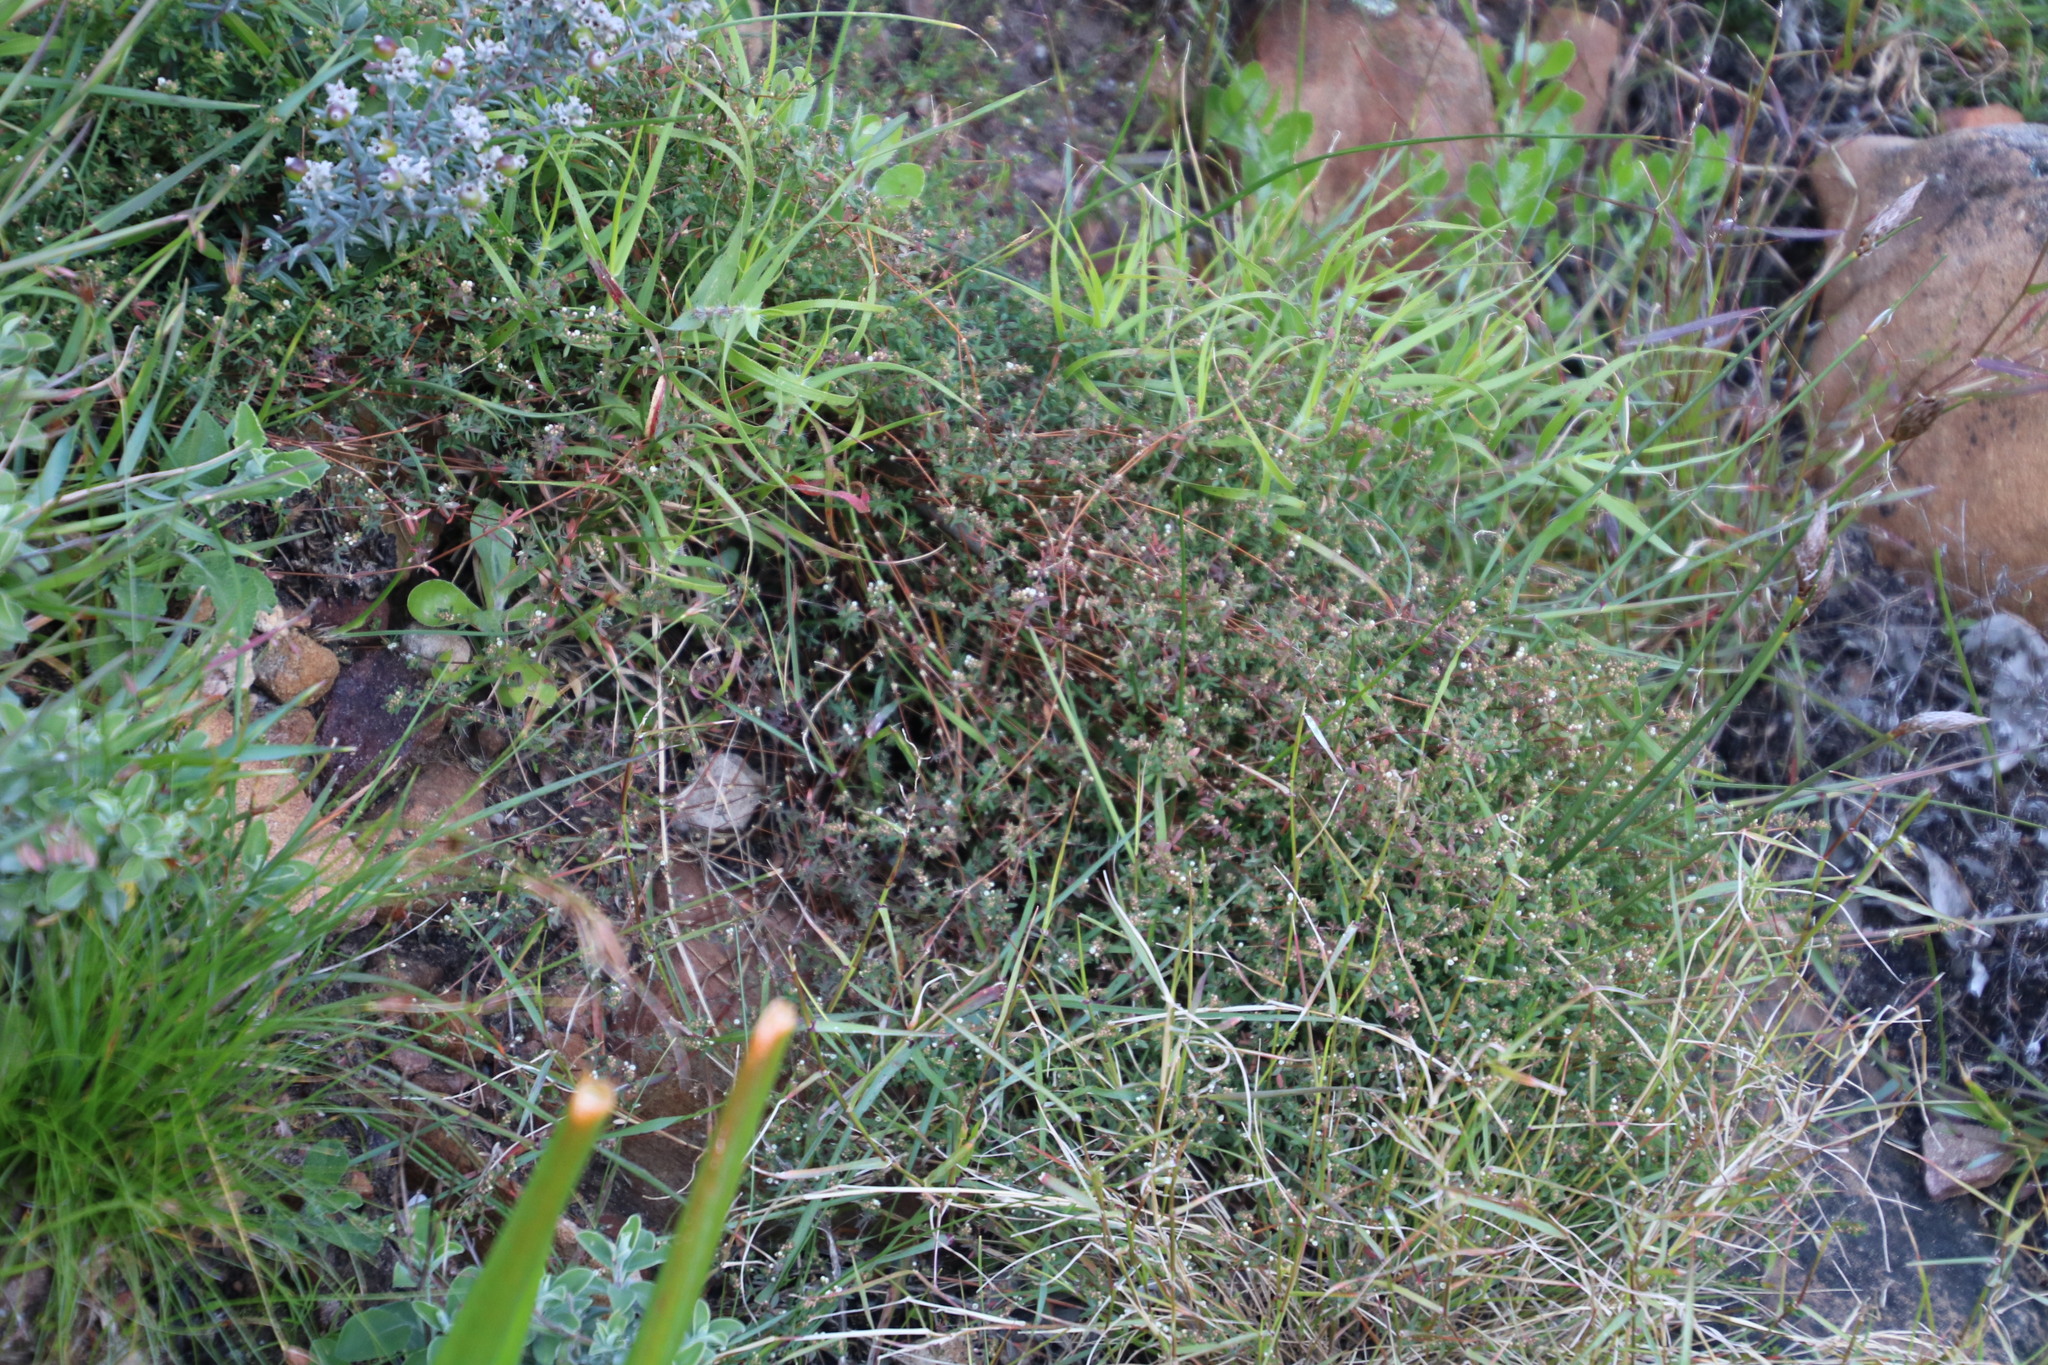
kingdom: Plantae
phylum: Tracheophyta
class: Magnoliopsida
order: Caryophyllales
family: Molluginaceae
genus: Adenogramma
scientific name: Adenogramma lichtensteiniana
